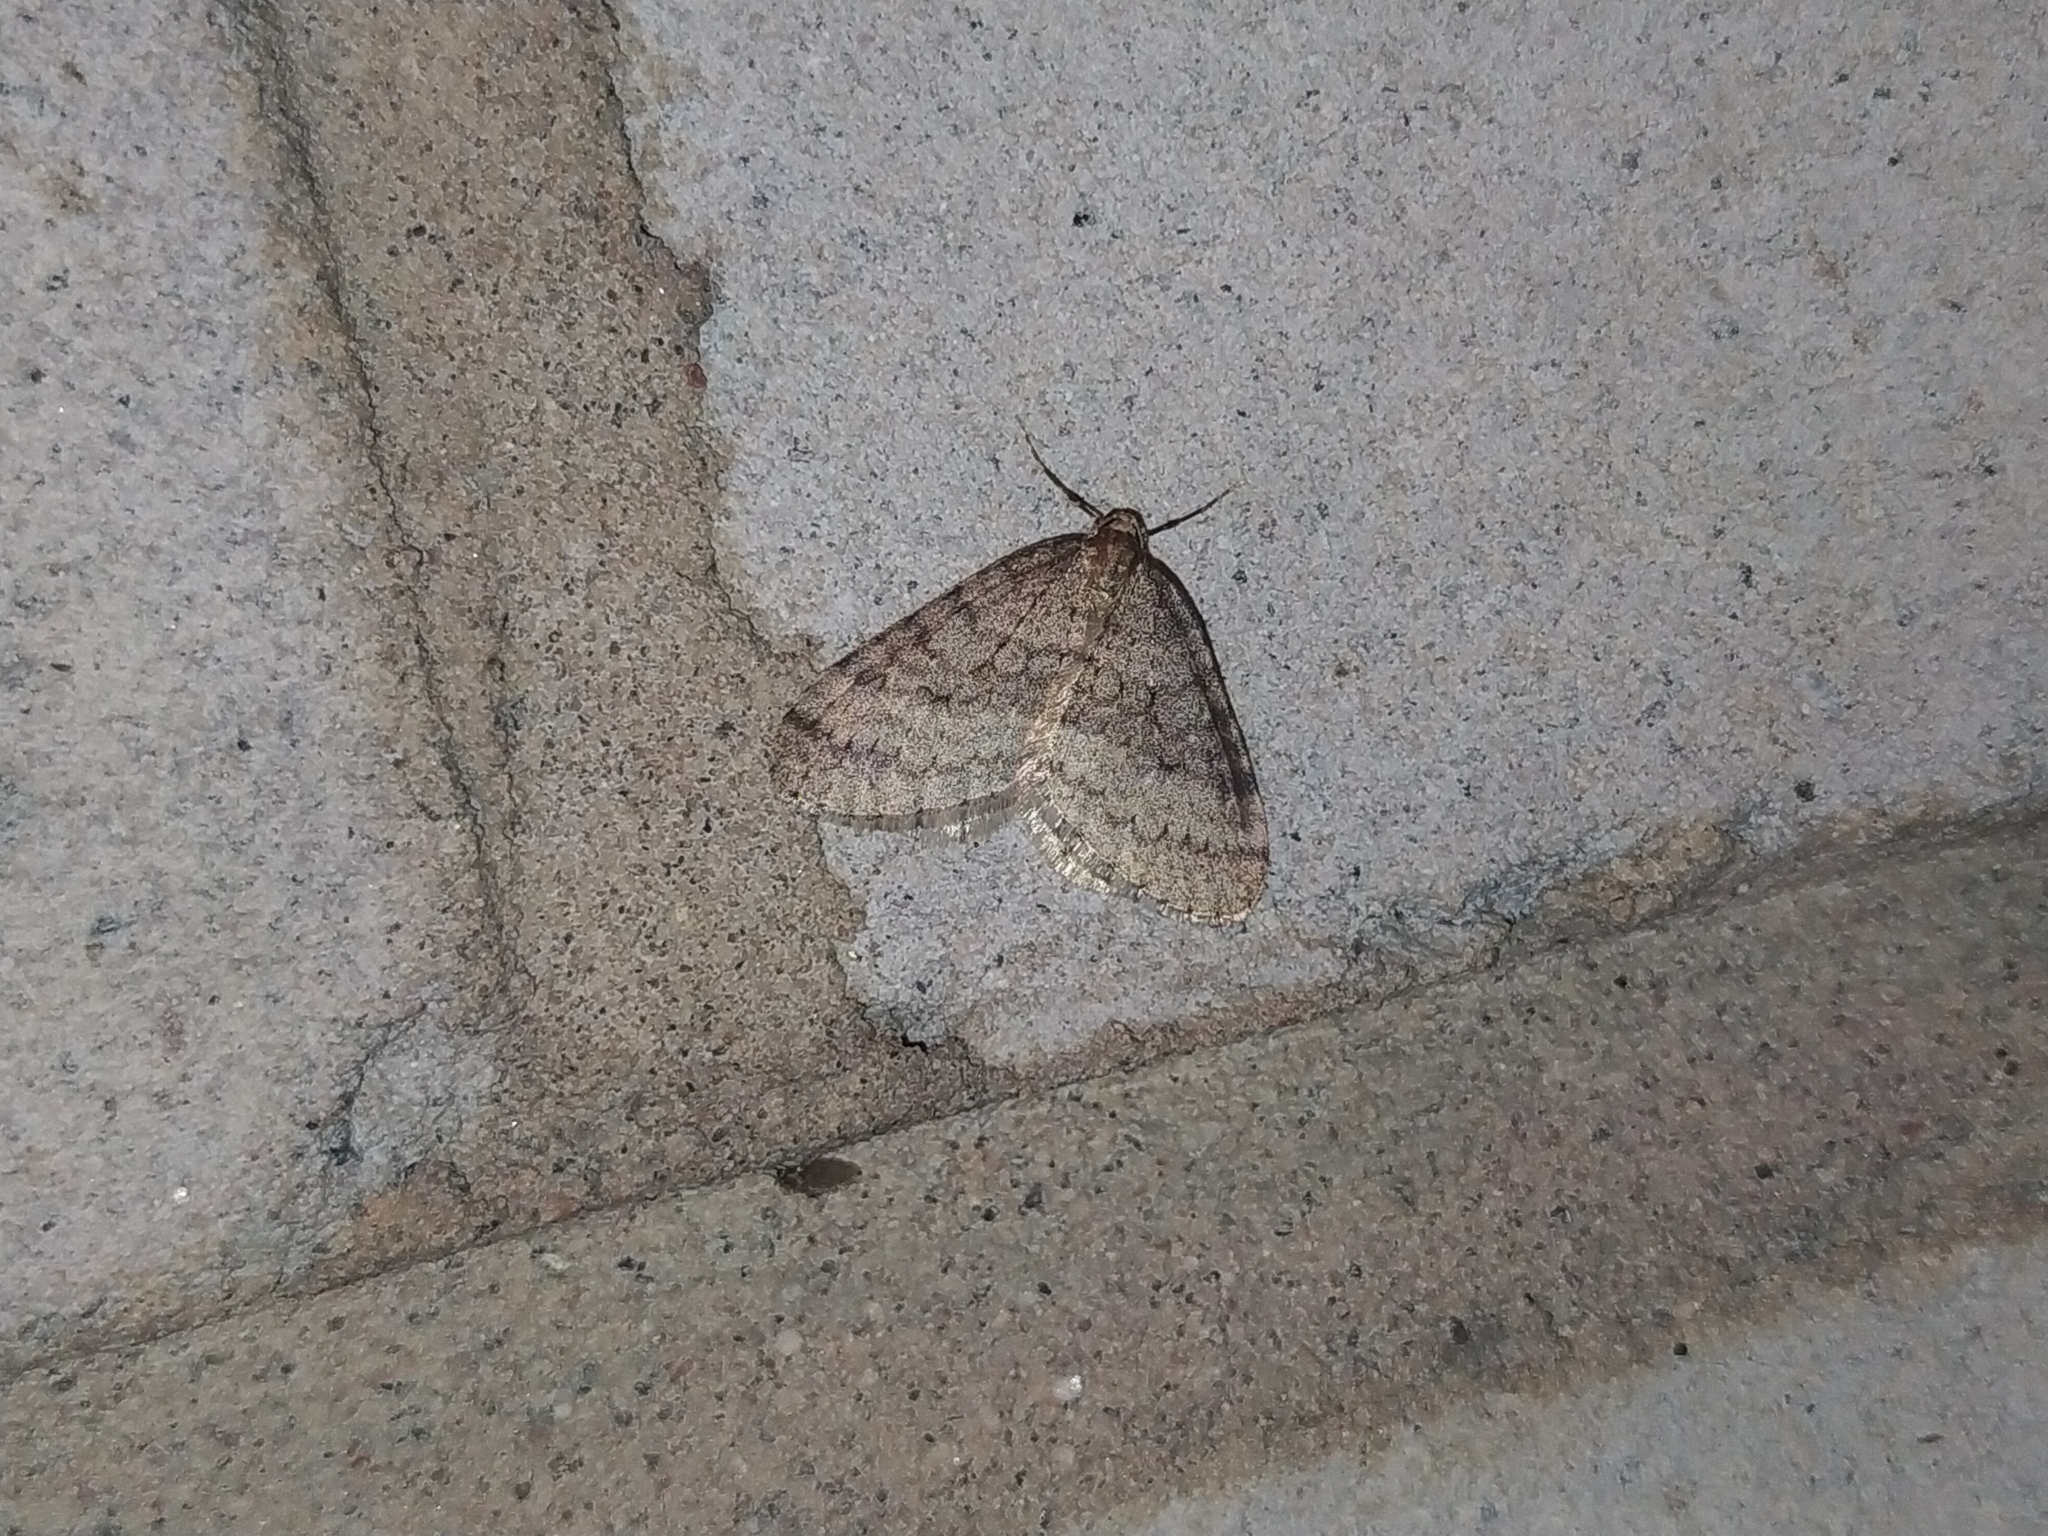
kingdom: Animalia
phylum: Arthropoda
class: Insecta
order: Lepidoptera
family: Geometridae
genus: Operophtera
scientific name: Operophtera brumata
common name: Winter moth
